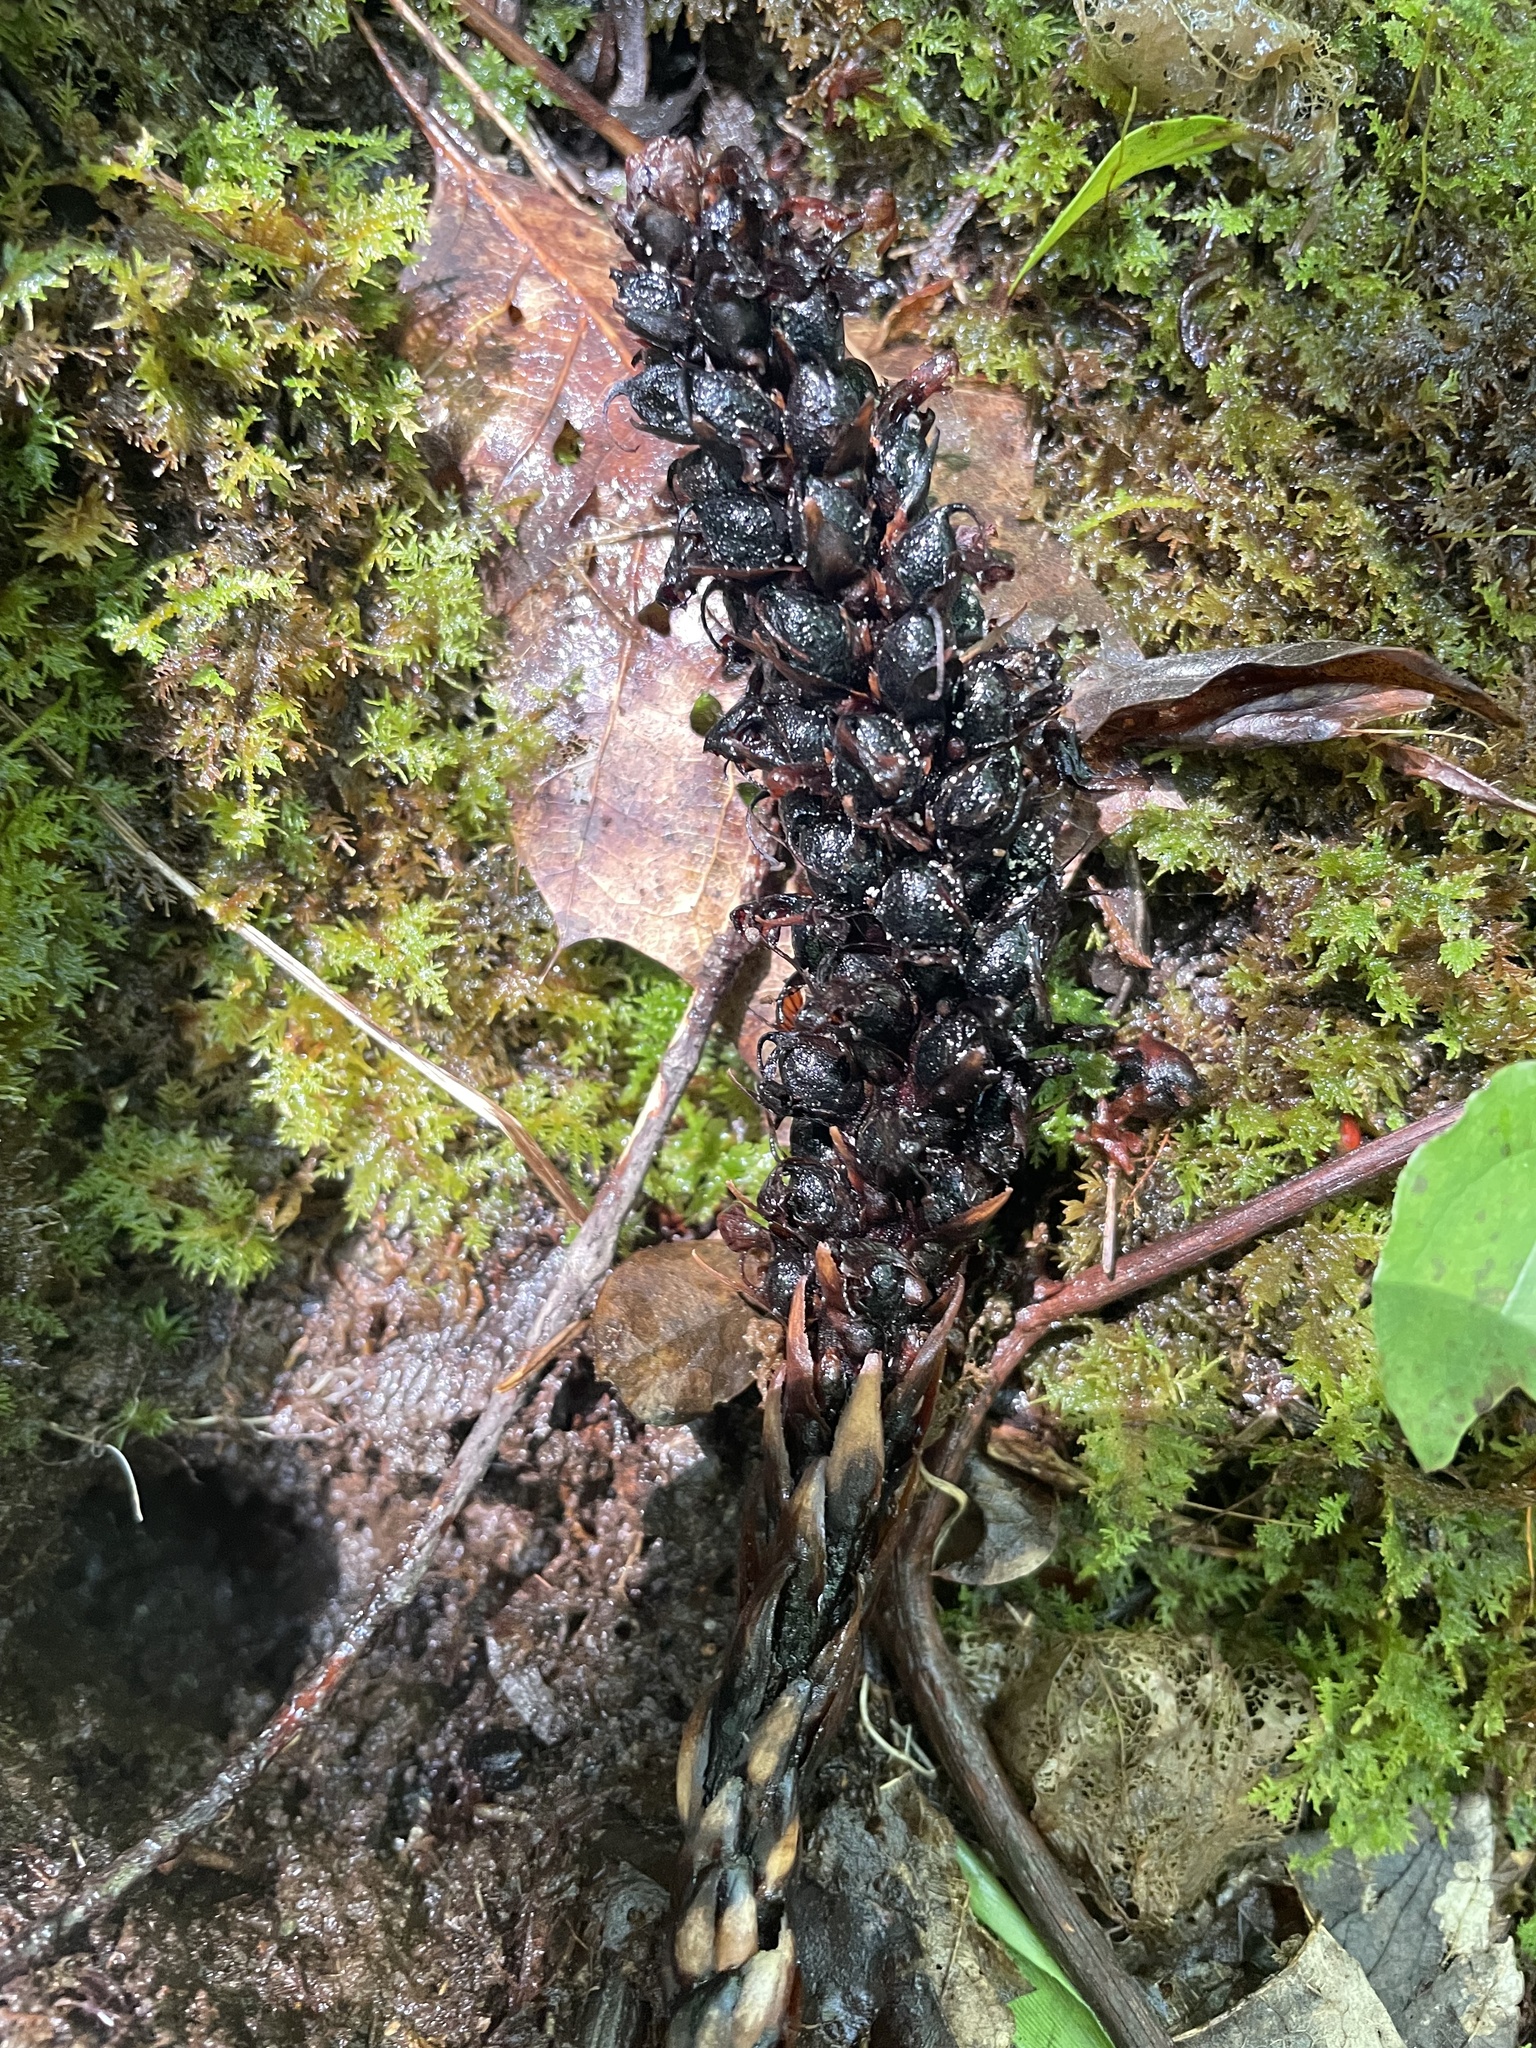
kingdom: Plantae
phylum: Tracheophyta
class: Magnoliopsida
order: Lamiales
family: Orobanchaceae
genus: Conopholis
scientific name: Conopholis americana
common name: American cancer-root
